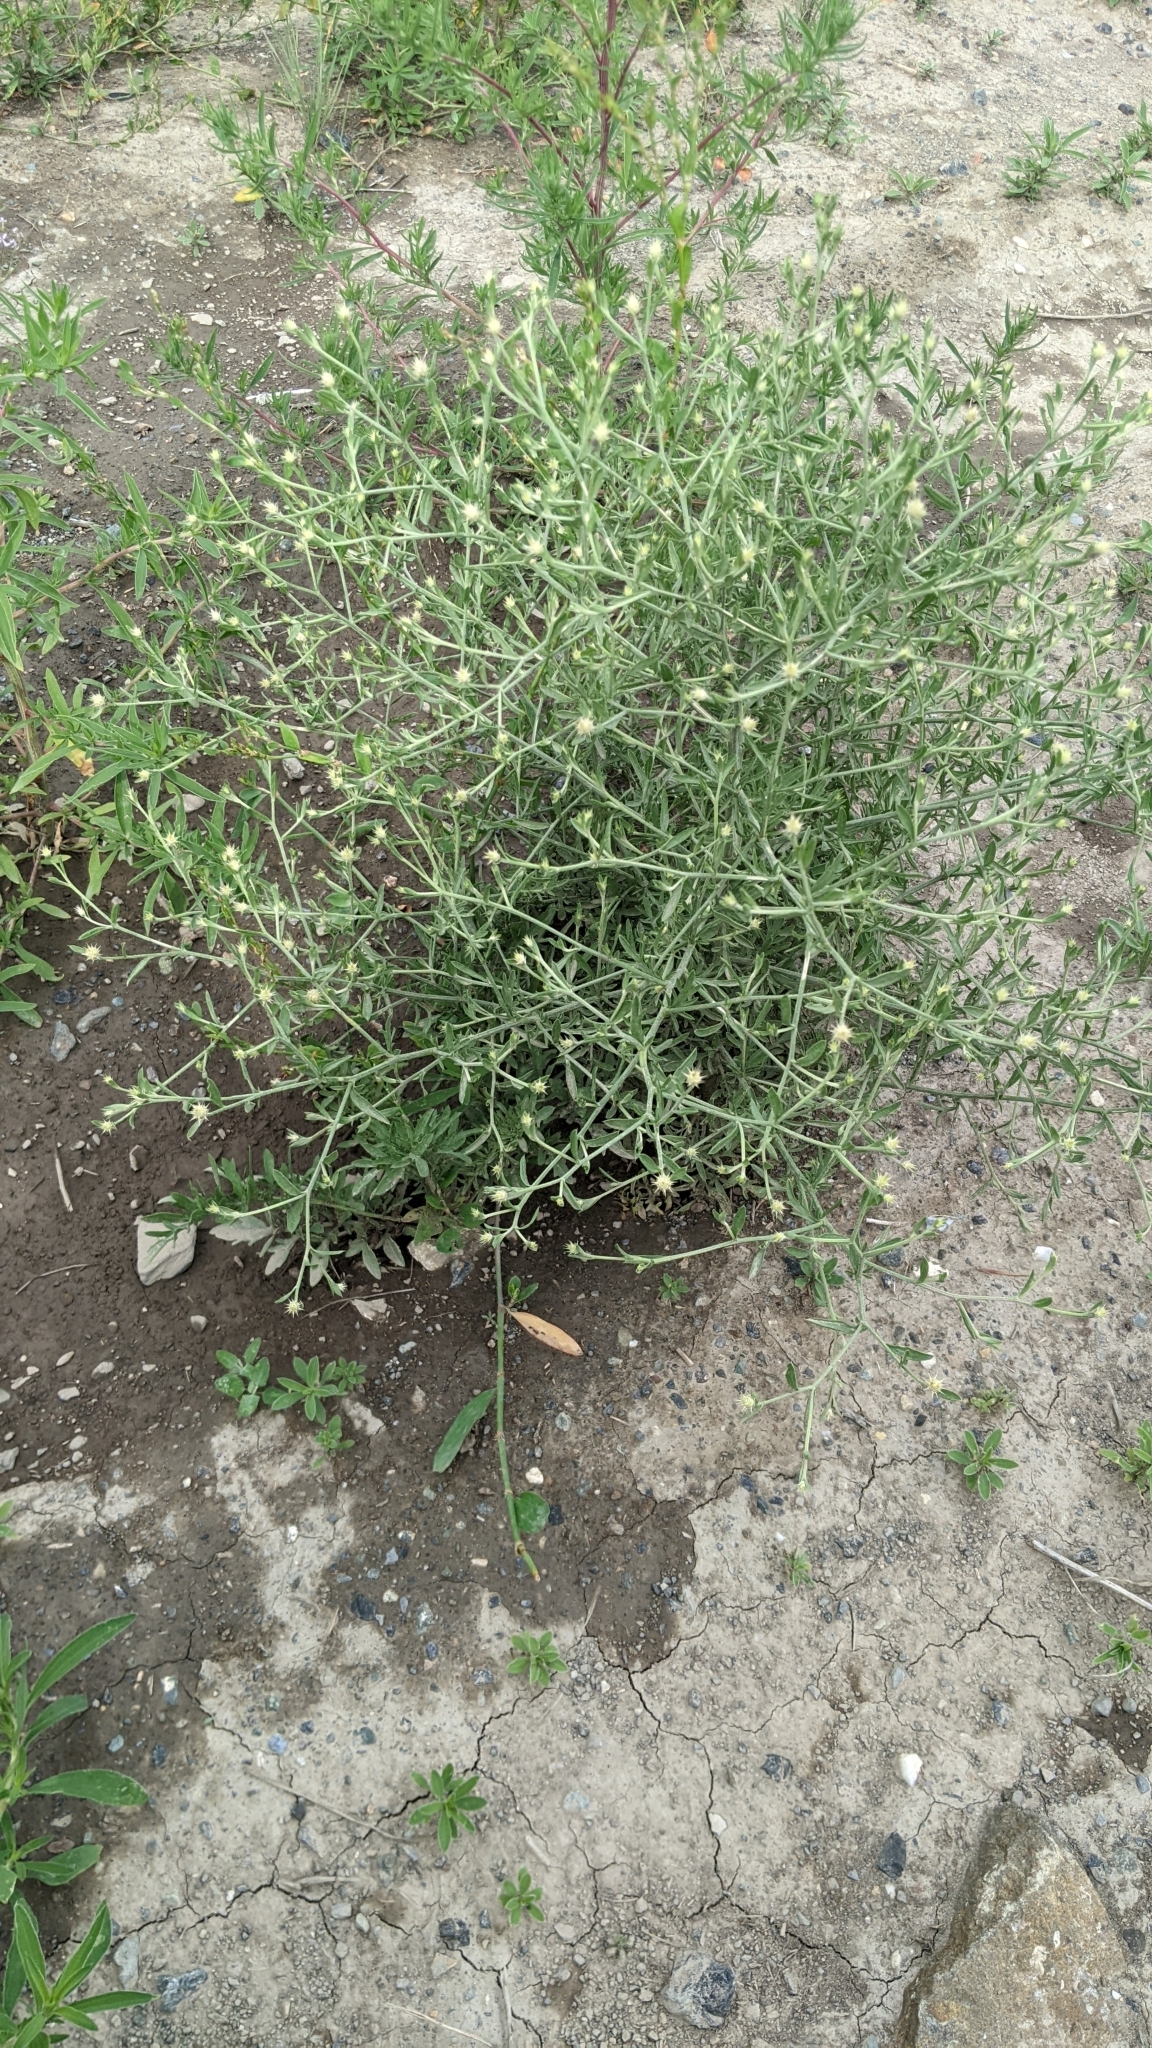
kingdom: Plantae
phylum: Tracheophyta
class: Magnoliopsida
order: Asterales
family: Asteraceae
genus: Centaurea
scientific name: Centaurea diffusa
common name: Diffuse knapweed
